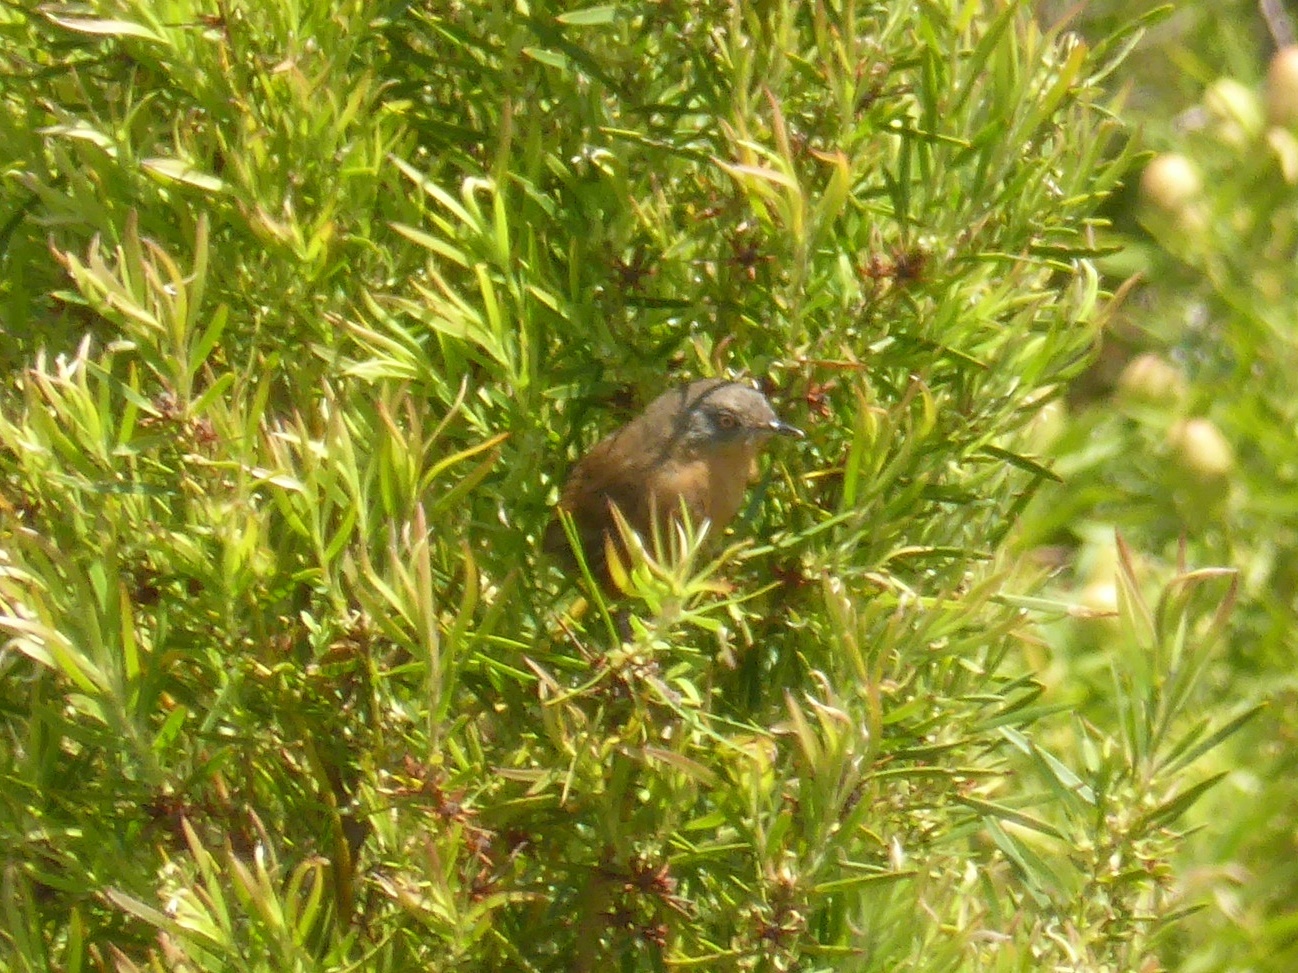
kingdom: Animalia
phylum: Chordata
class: Aves
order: Passeriformes
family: Macrosphenidae
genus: Cryptillas
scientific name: Cryptillas victorini
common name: Victorin's warbler
